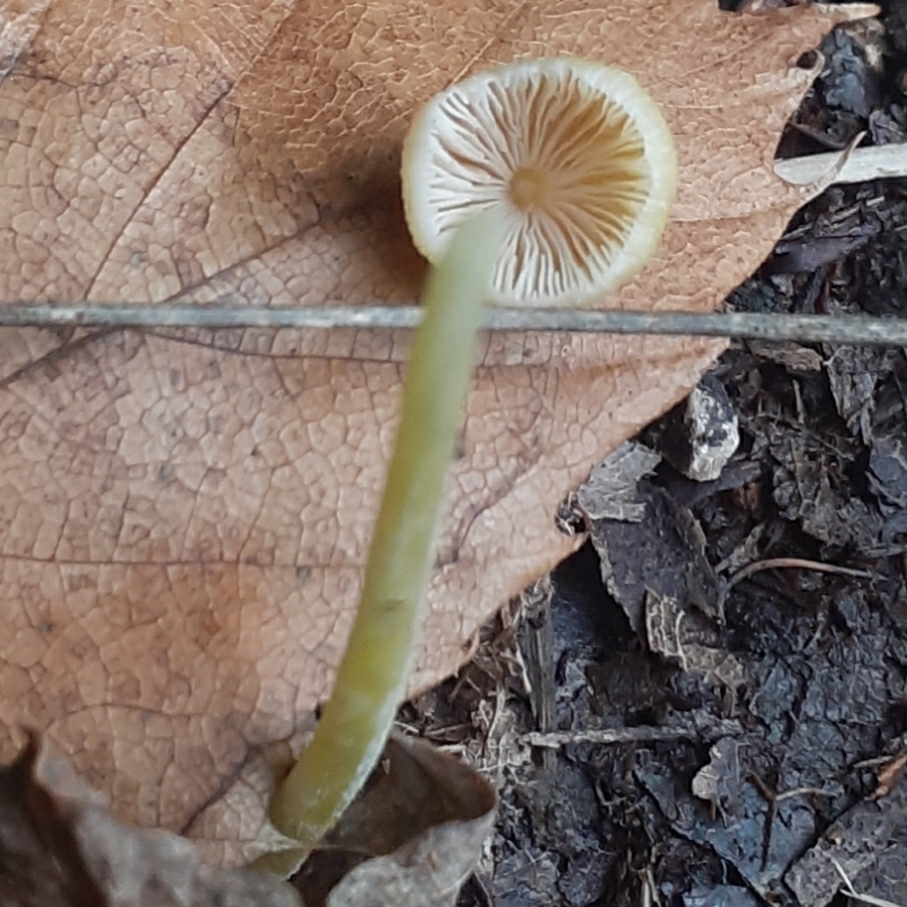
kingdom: Fungi
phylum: Basidiomycota
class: Agaricomycetes
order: Agaricales
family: Bolbitiaceae
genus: Bolbitius
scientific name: Bolbitius titubans
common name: Yellow fieldcap
